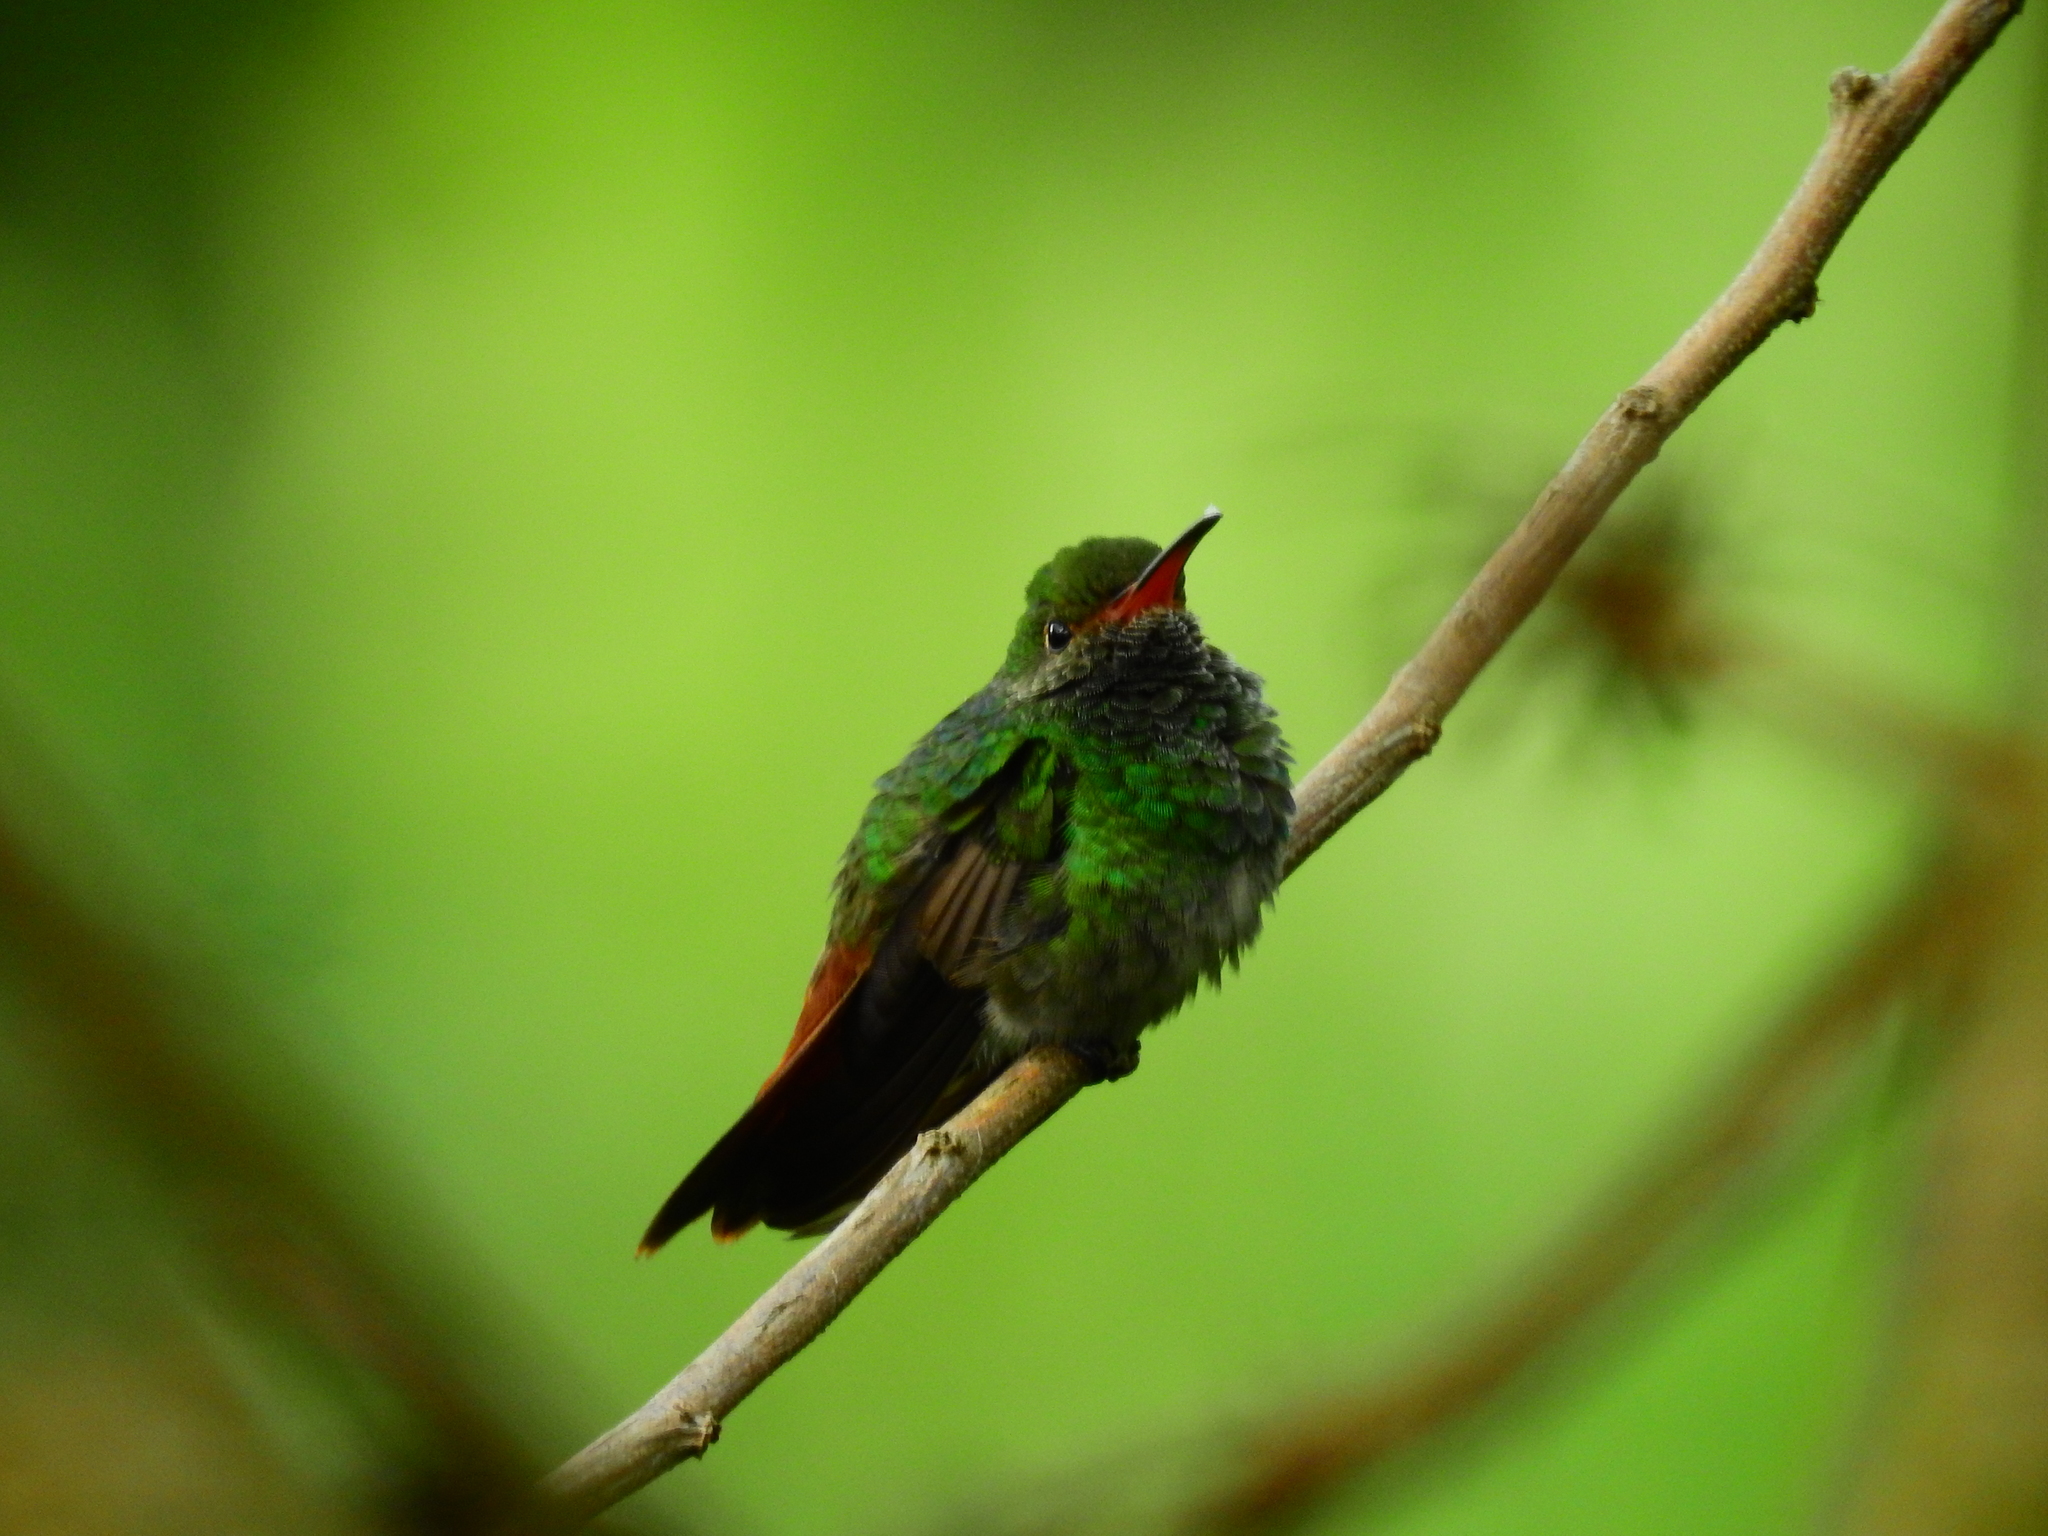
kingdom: Animalia
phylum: Chordata
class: Aves
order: Apodiformes
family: Trochilidae
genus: Amazilia
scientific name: Amazilia tzacatl
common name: Rufous-tailed hummingbird
